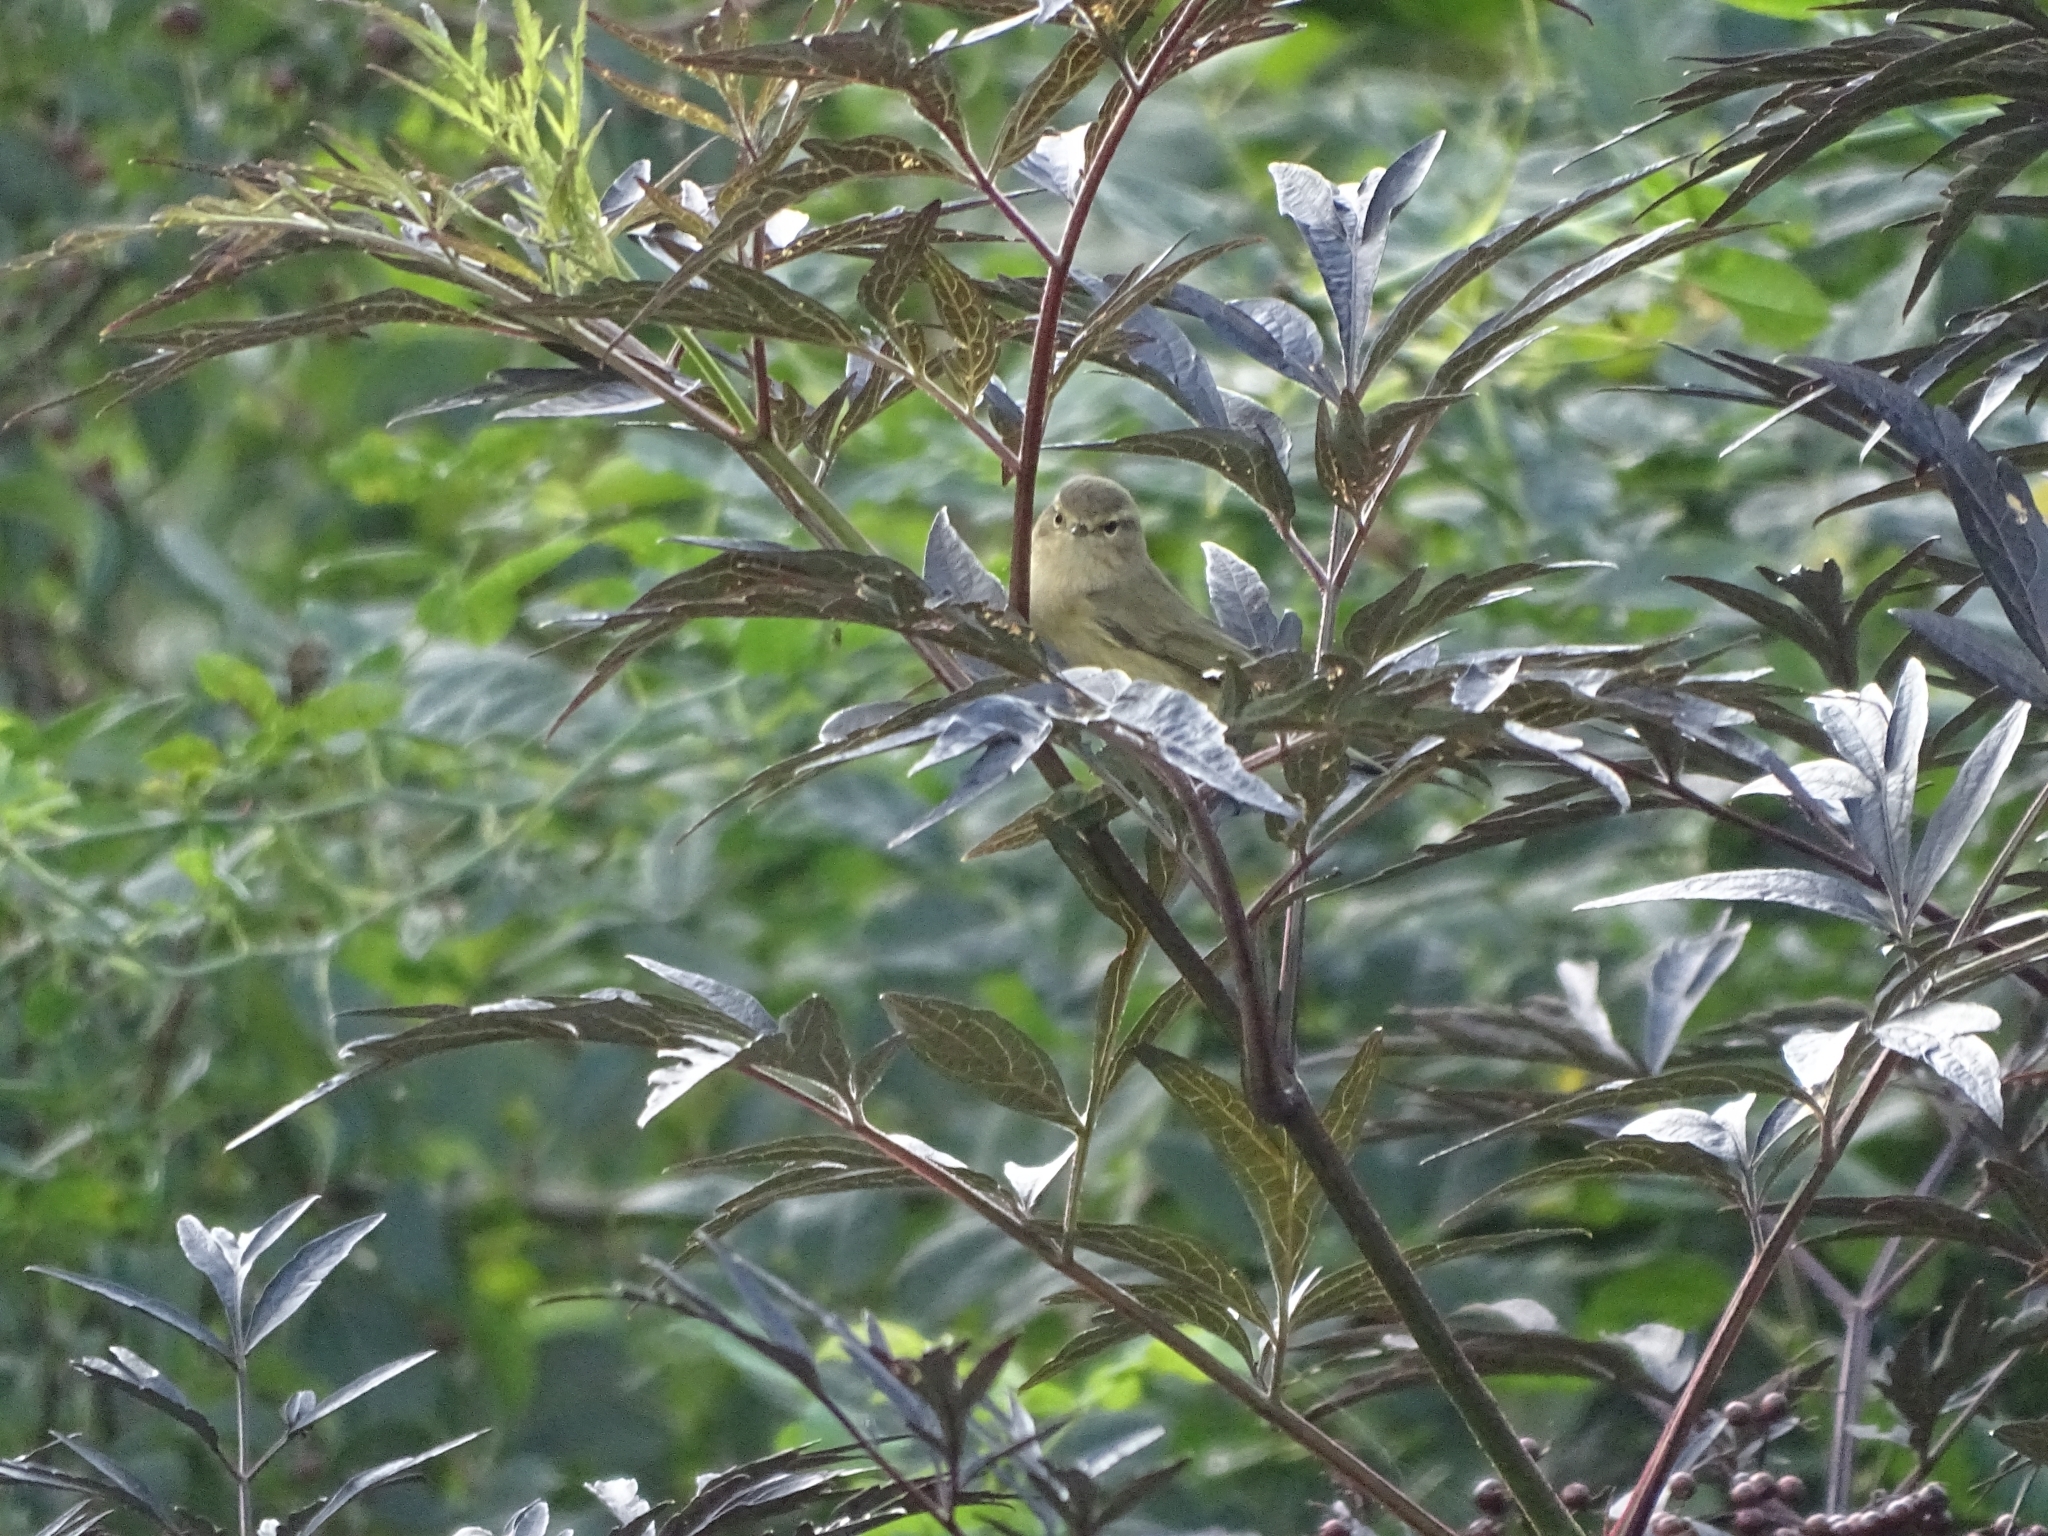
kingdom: Animalia
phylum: Chordata
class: Aves
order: Passeriformes
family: Phylloscopidae
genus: Phylloscopus
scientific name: Phylloscopus collybita
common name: Common chiffchaff
